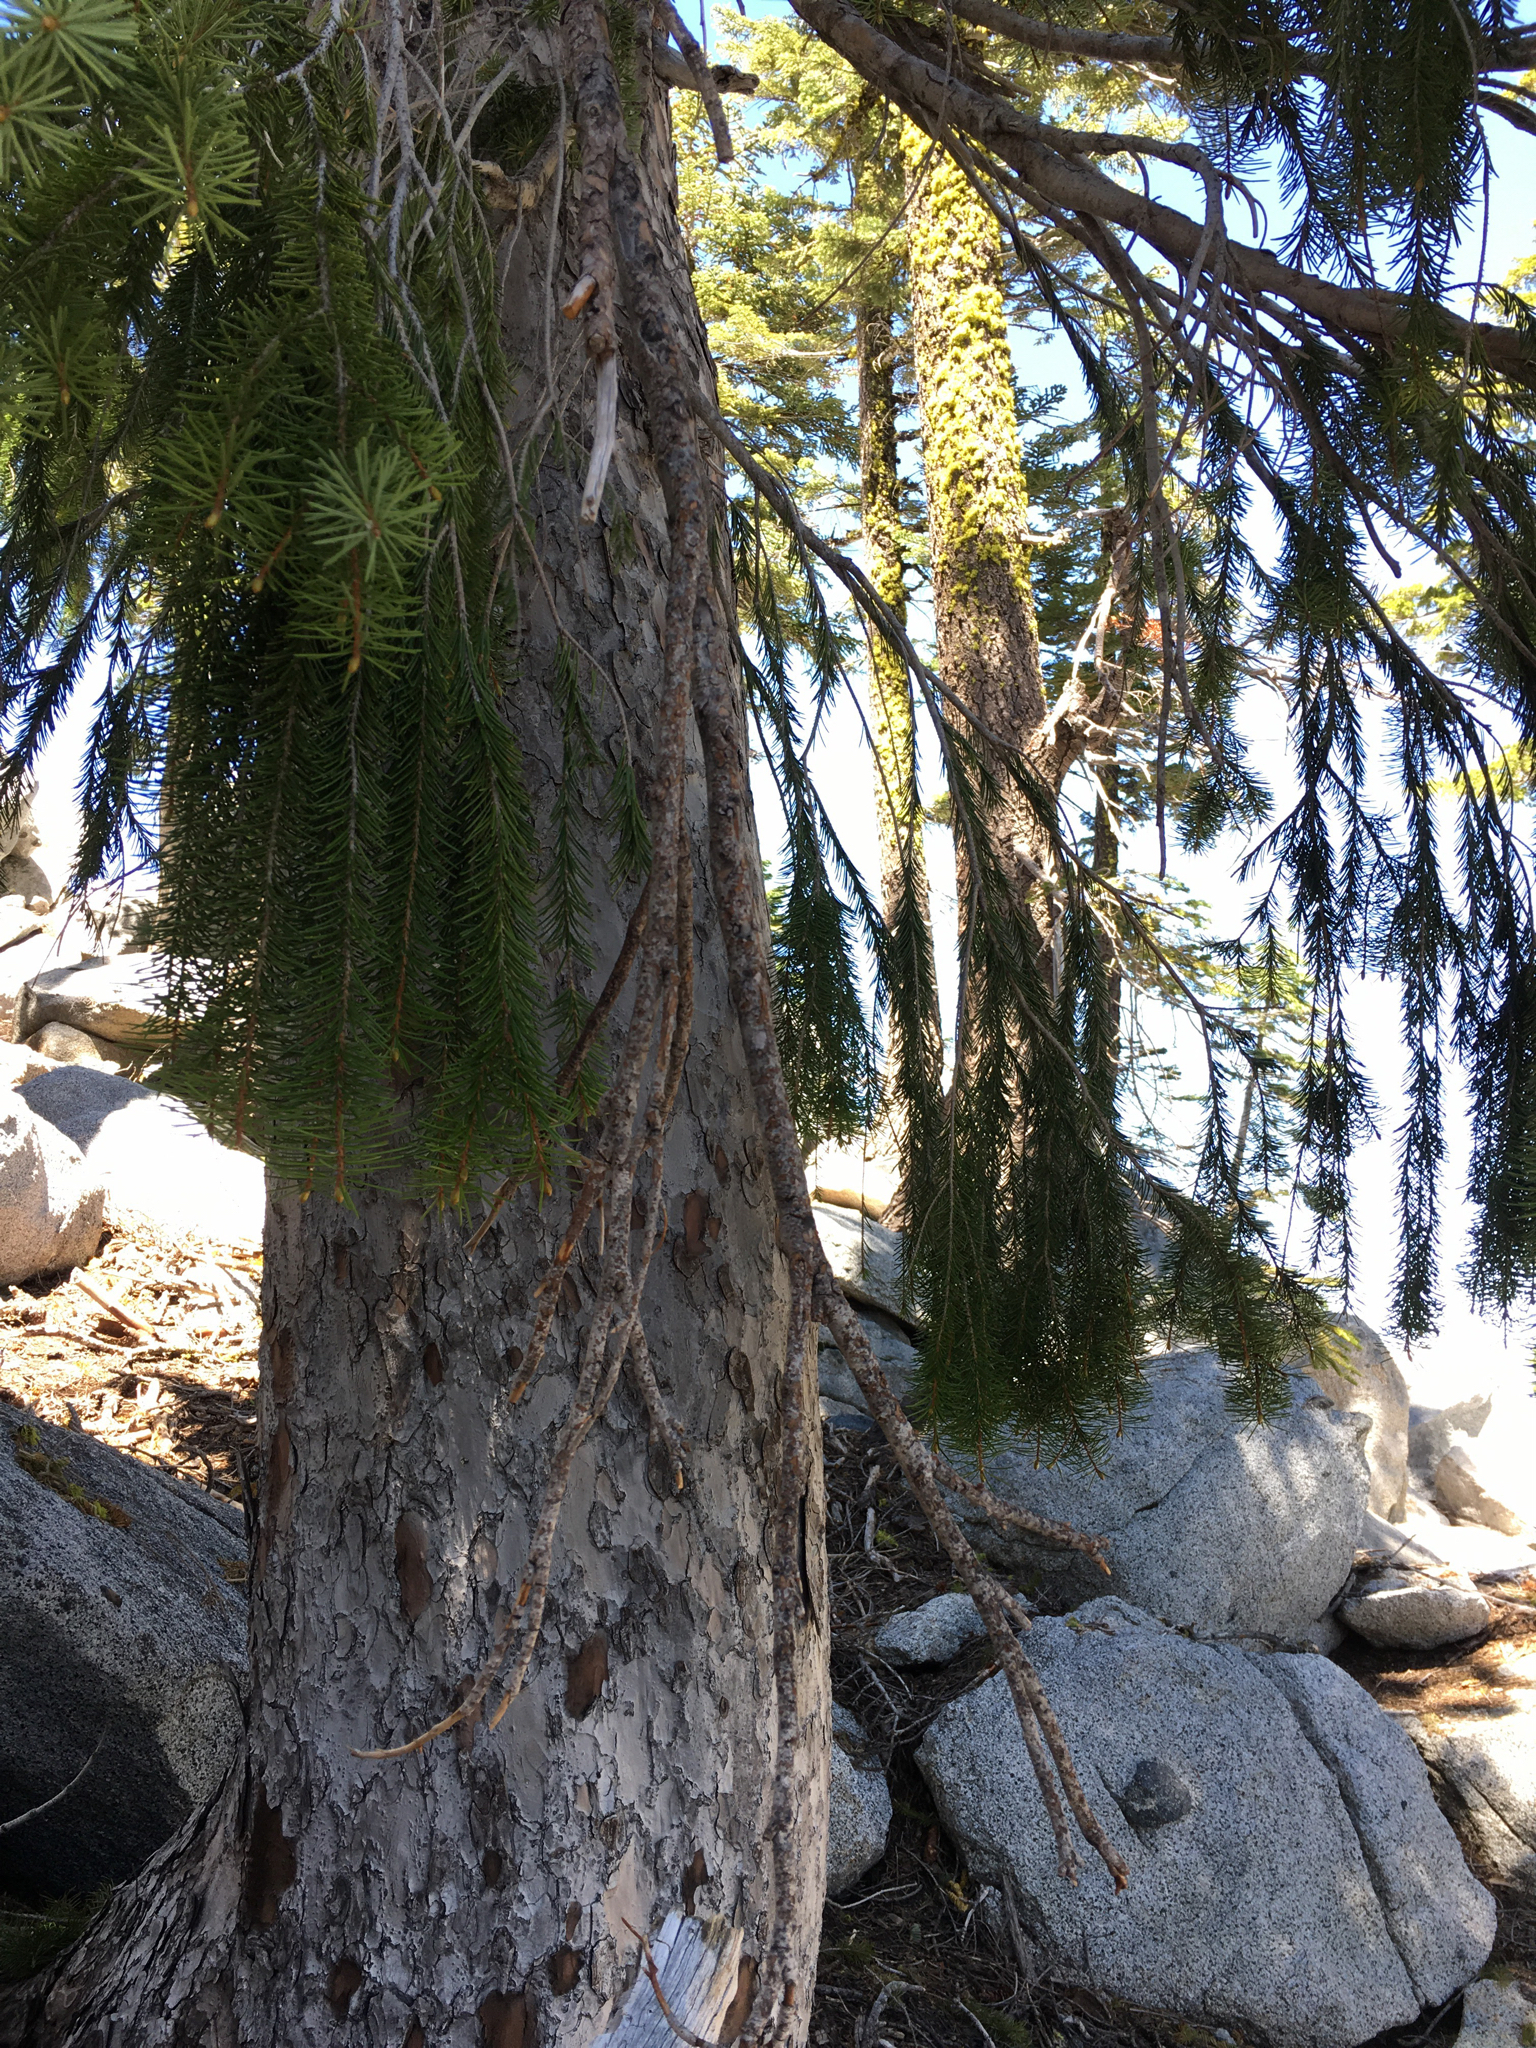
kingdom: Plantae
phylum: Tracheophyta
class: Pinopsida
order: Pinales
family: Pinaceae
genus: Picea
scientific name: Picea breweriana
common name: Brewer's spruce
